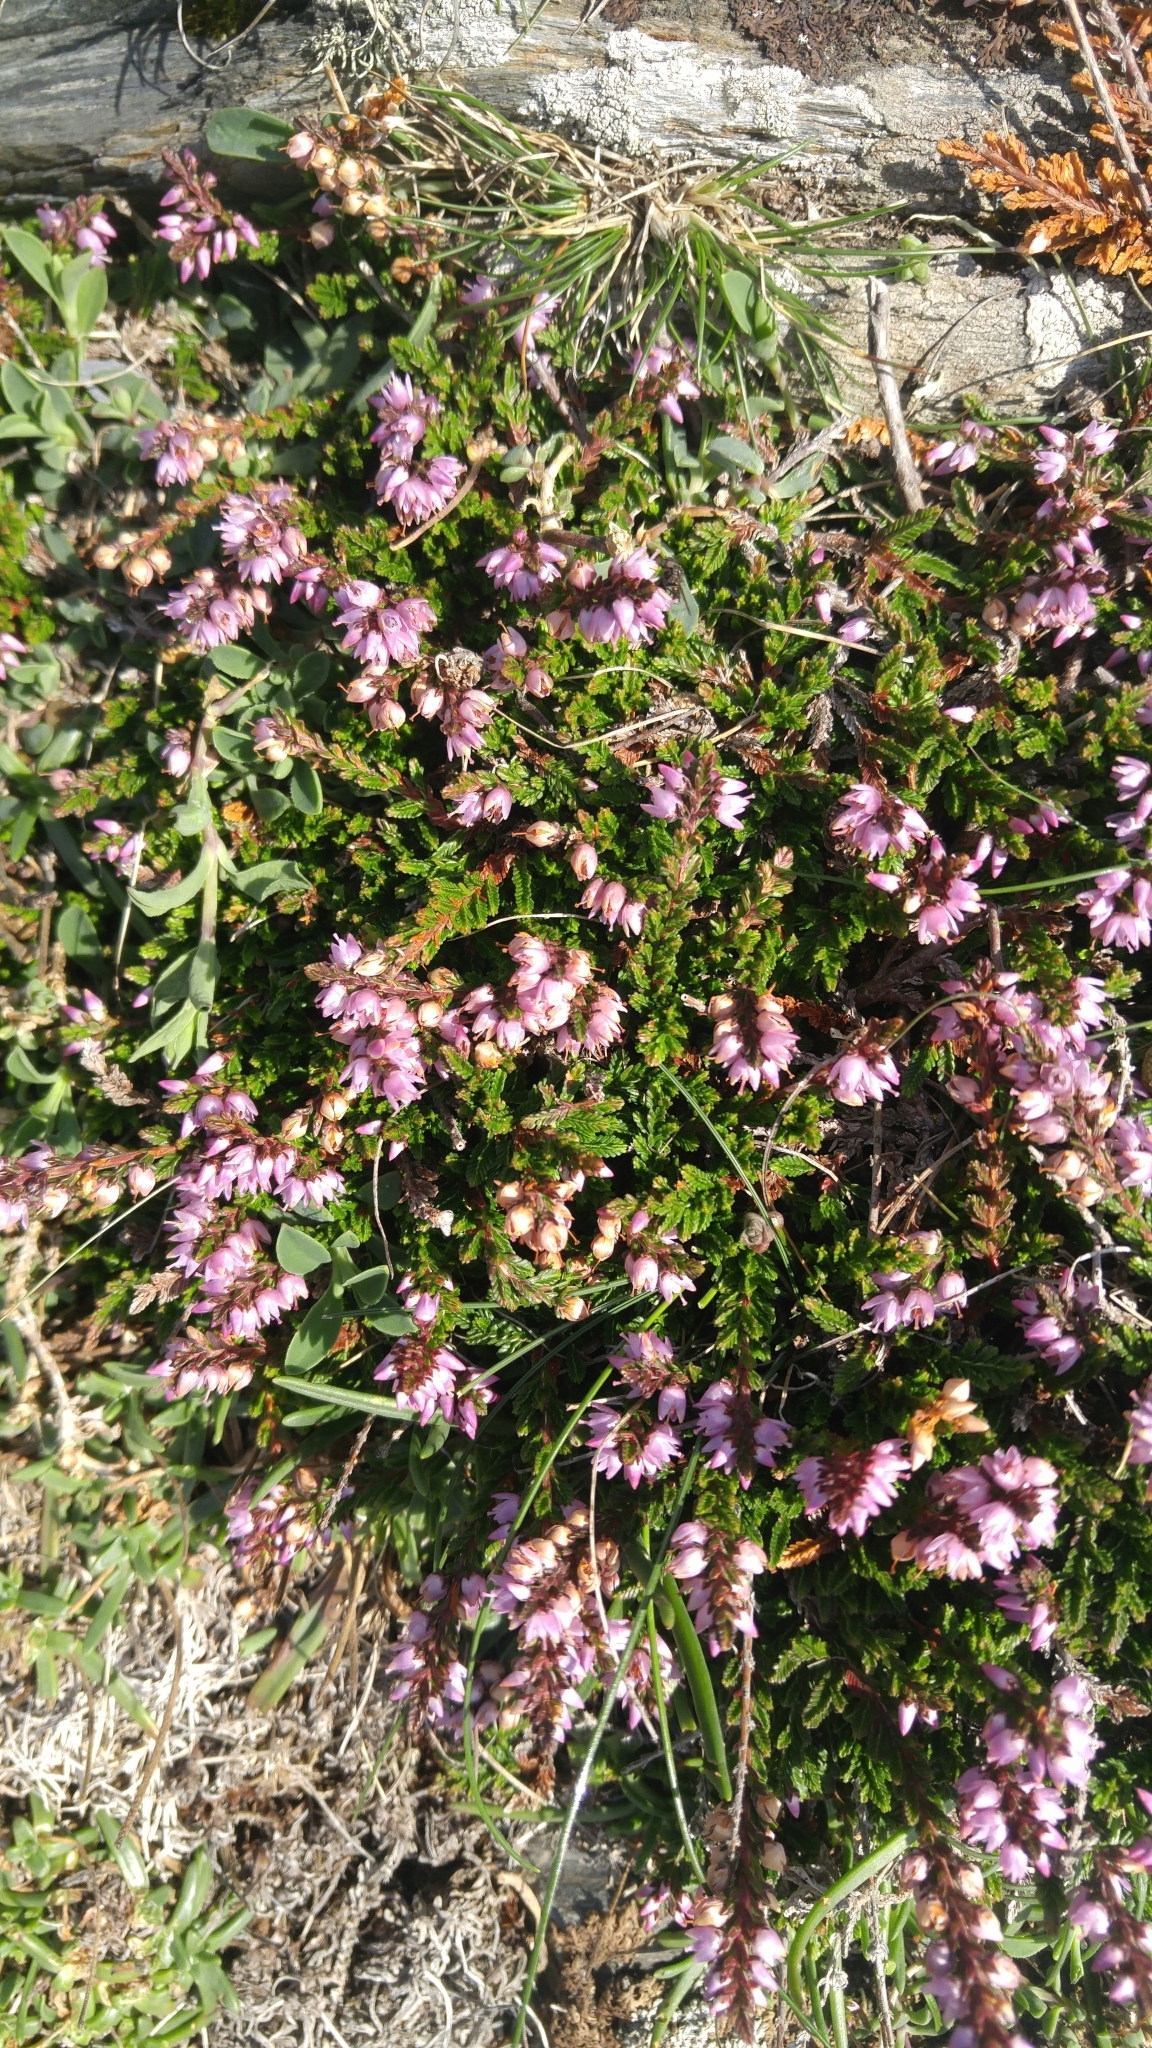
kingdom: Plantae
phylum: Tracheophyta
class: Magnoliopsida
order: Ericales
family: Ericaceae
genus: Calluna
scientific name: Calluna vulgaris
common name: Heather
